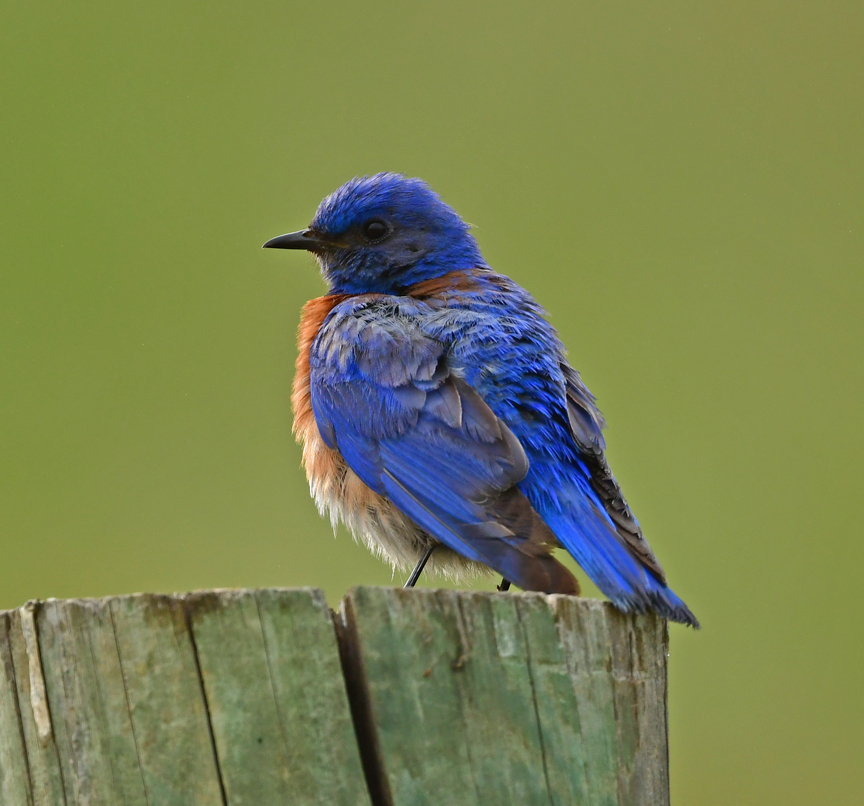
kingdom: Animalia
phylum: Chordata
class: Aves
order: Passeriformes
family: Turdidae
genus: Sialia
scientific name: Sialia mexicana
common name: Western bluebird
